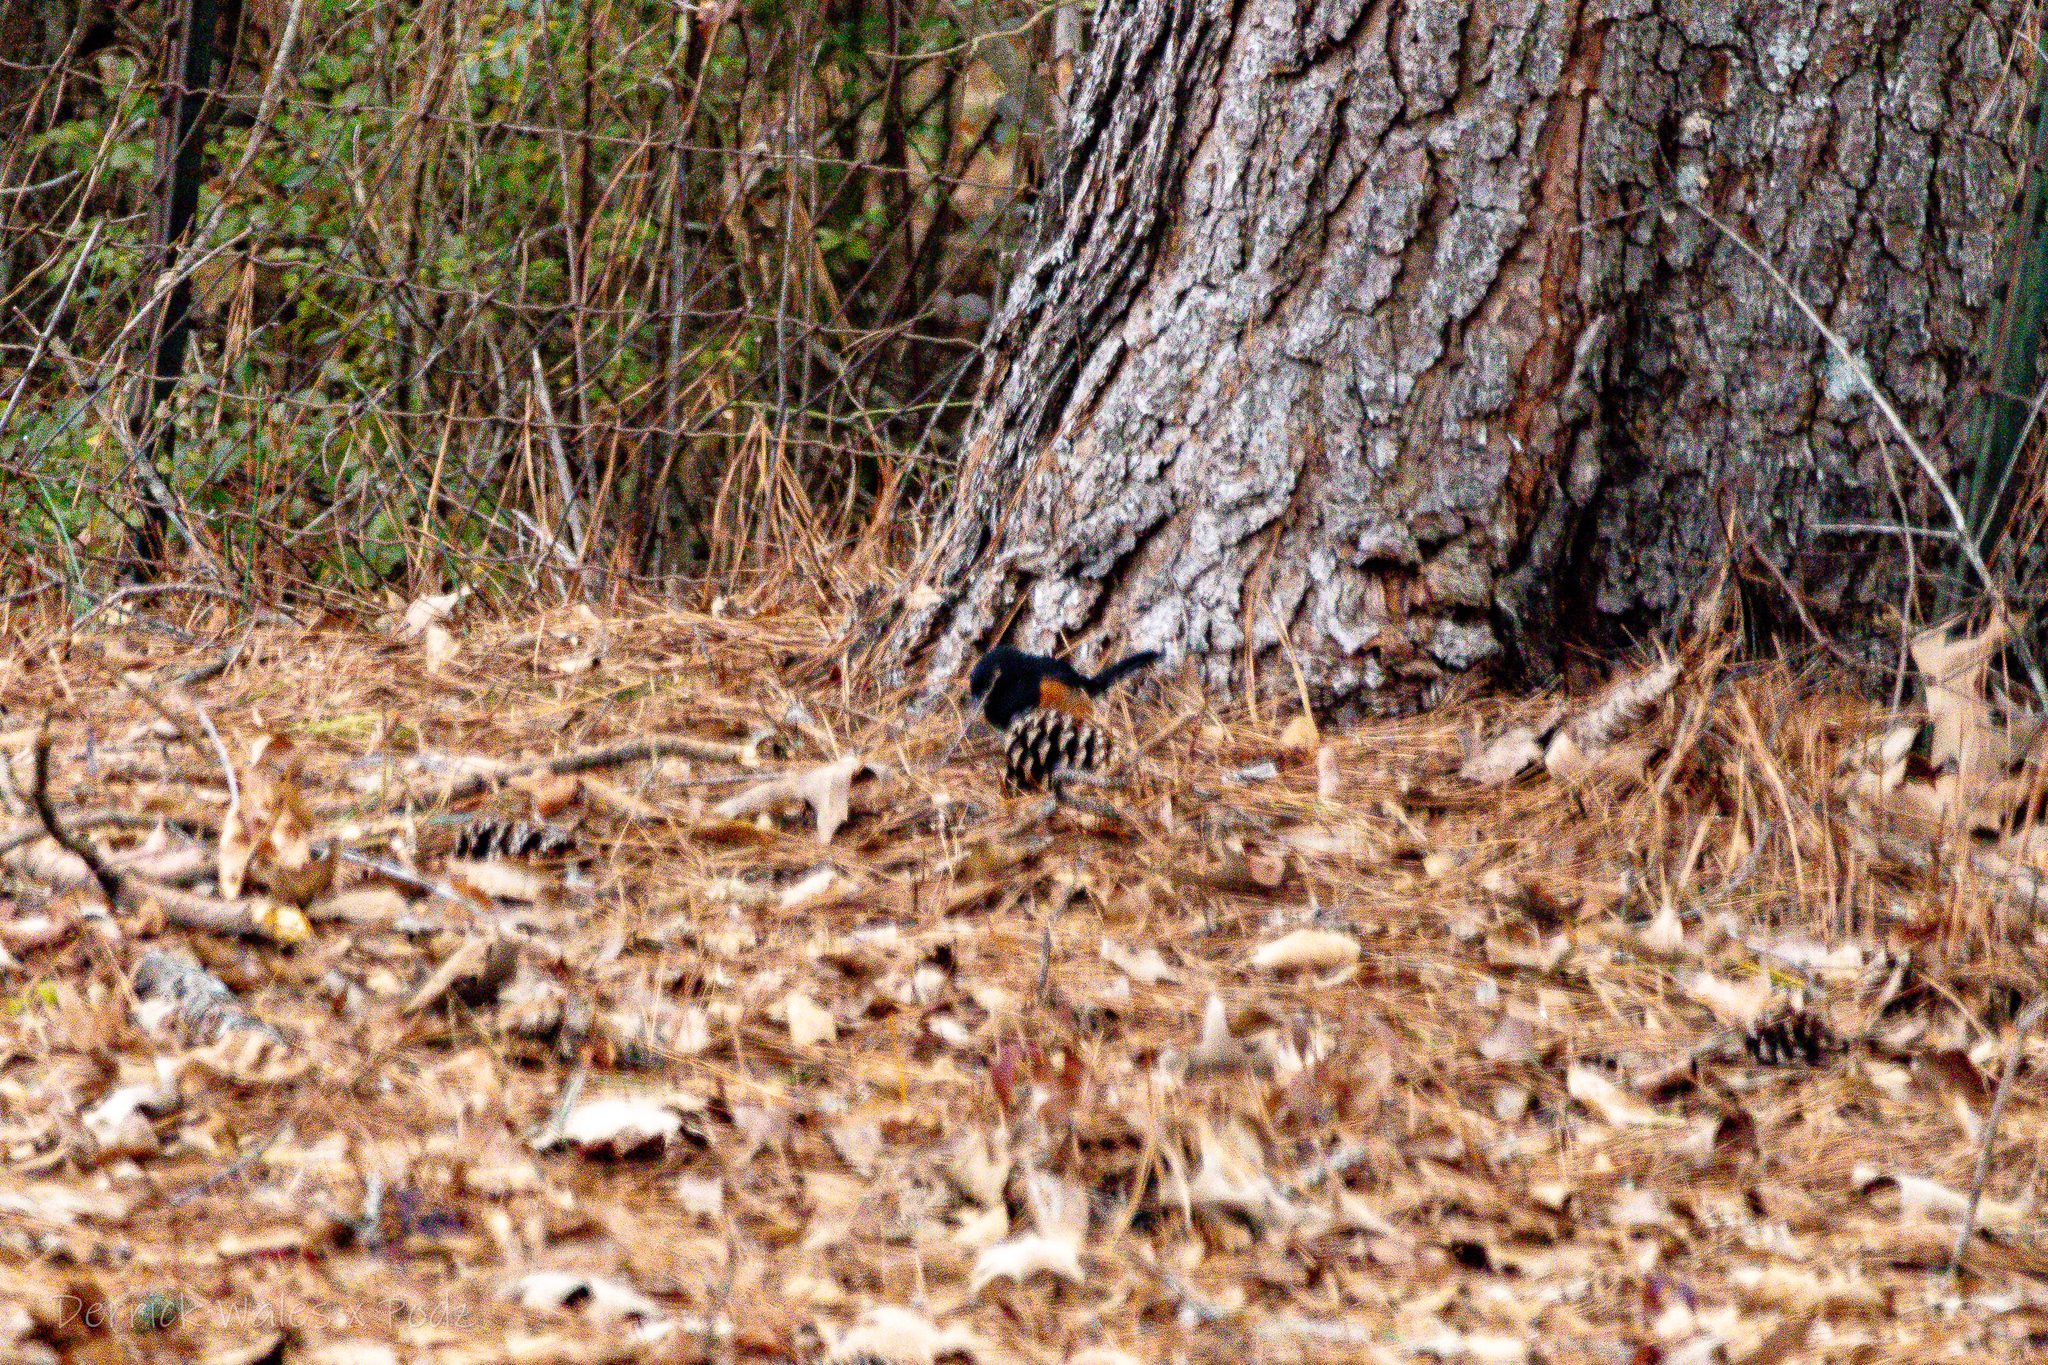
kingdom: Animalia
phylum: Chordata
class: Aves
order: Passeriformes
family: Passerellidae
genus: Pipilo
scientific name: Pipilo erythrophthalmus
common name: Eastern towhee
